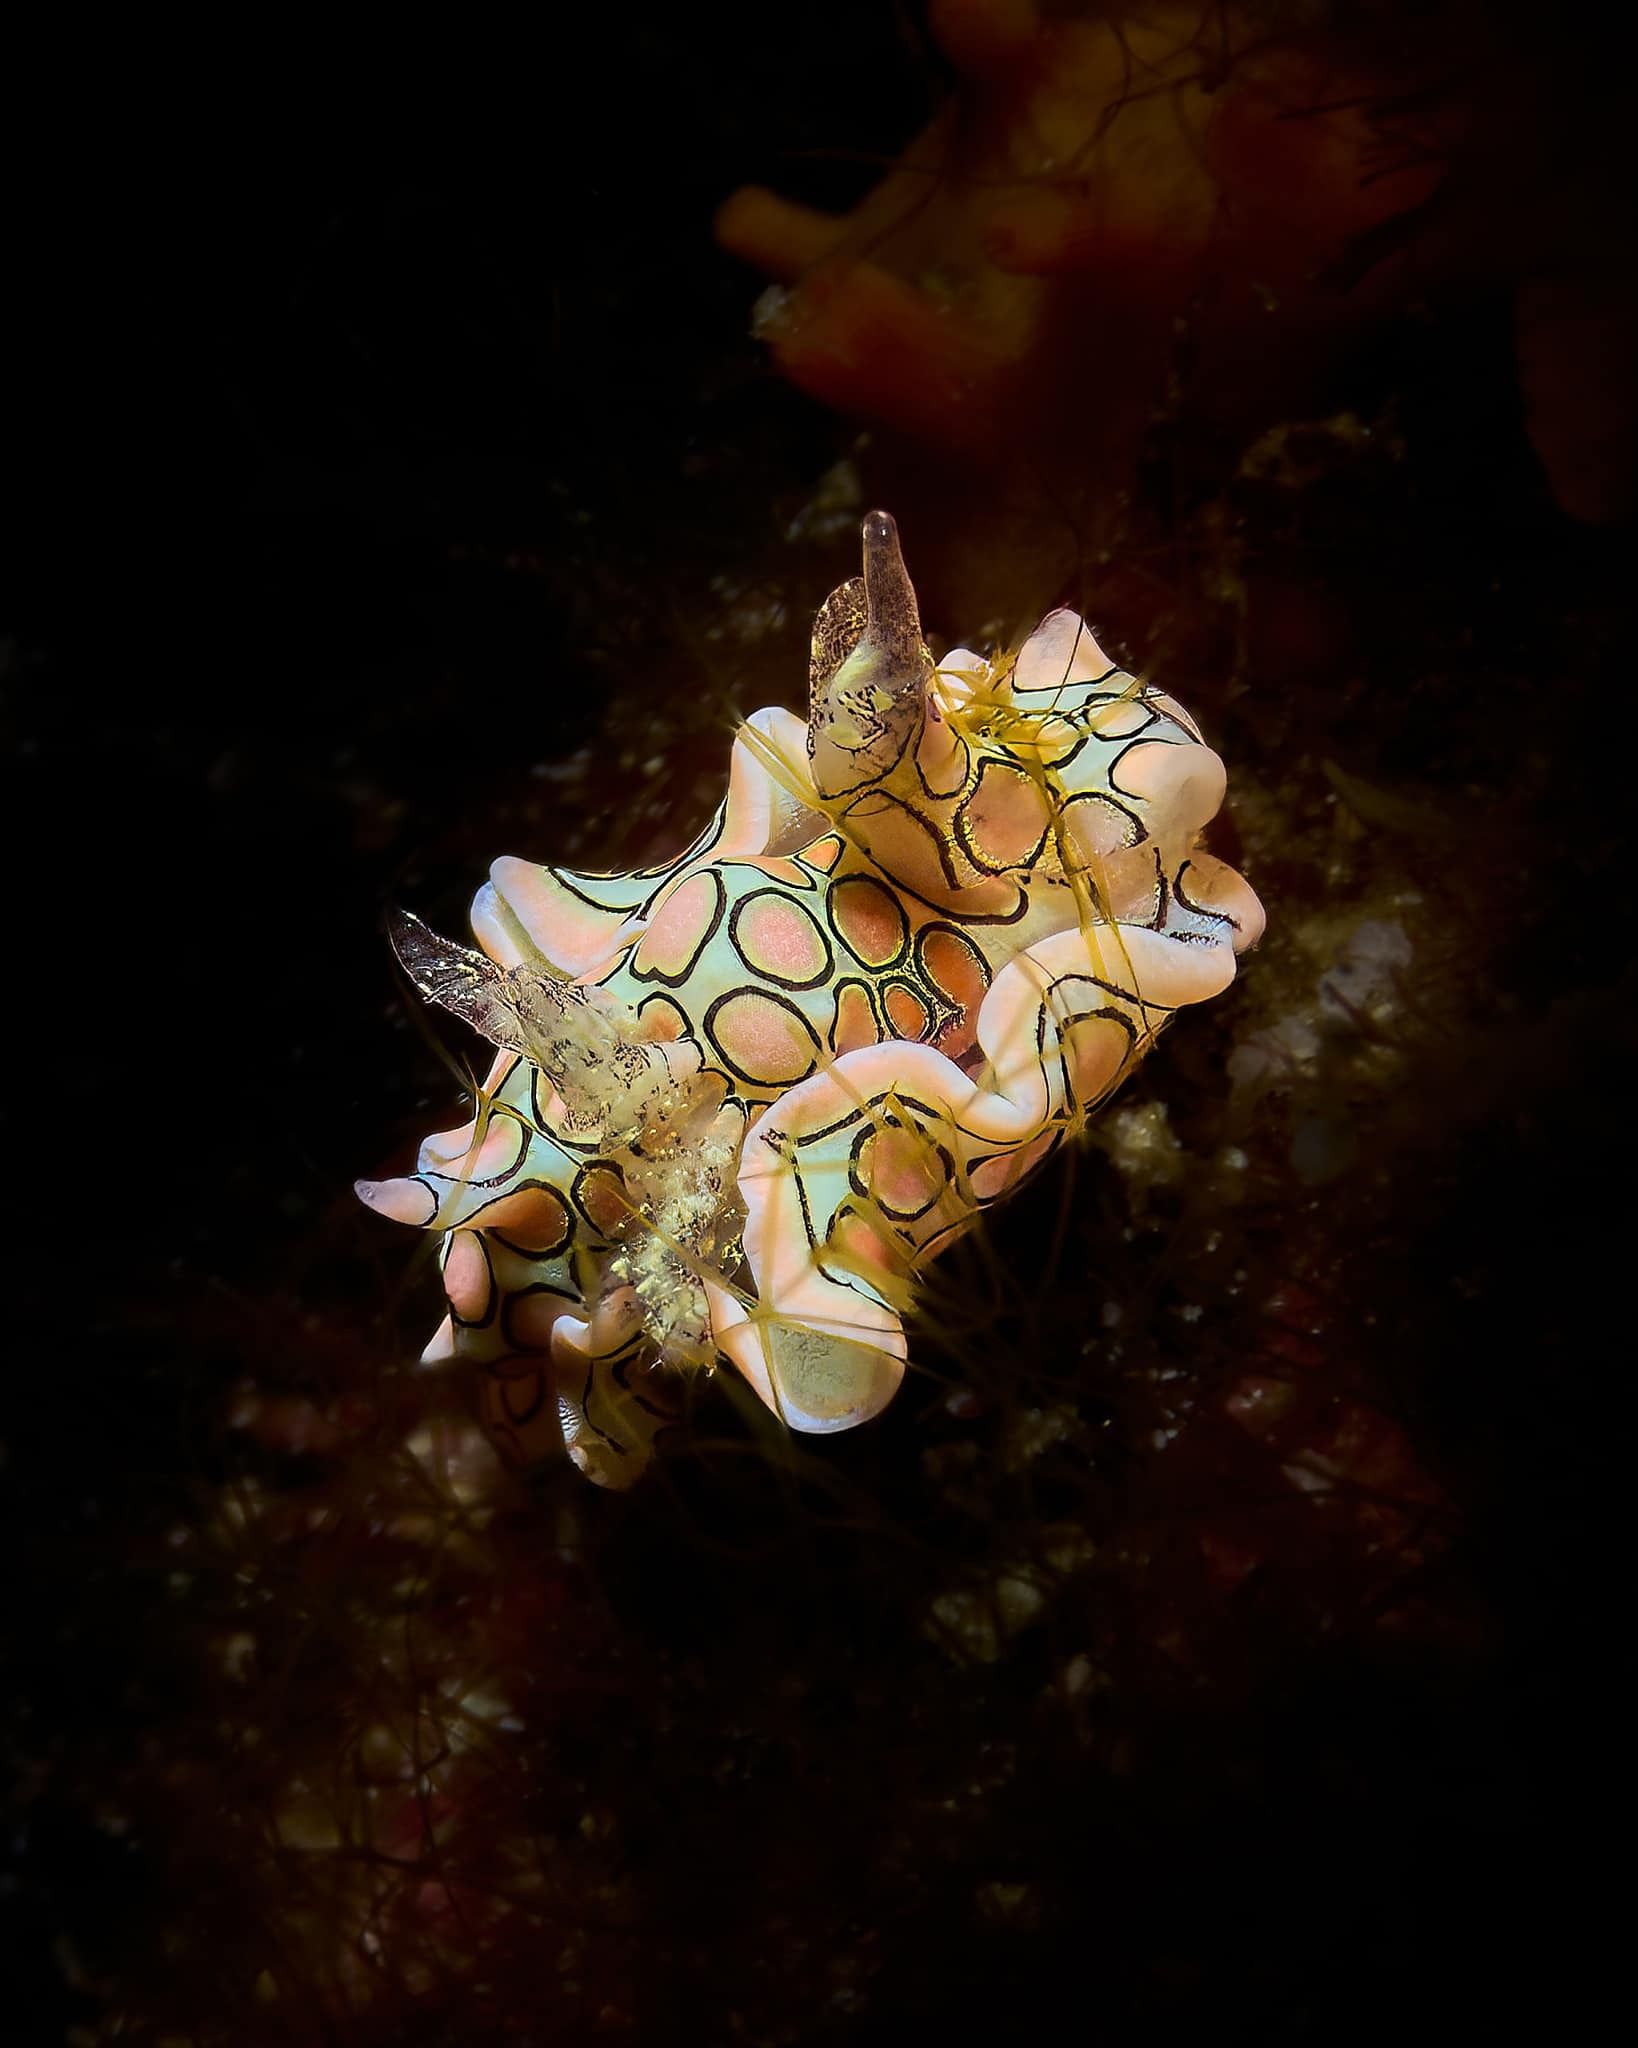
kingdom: Animalia
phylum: Mollusca
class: Gastropoda
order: Cephalaspidea
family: Gastropteridae
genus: Sagaminopteron
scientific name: Sagaminopteron psychedelicum
